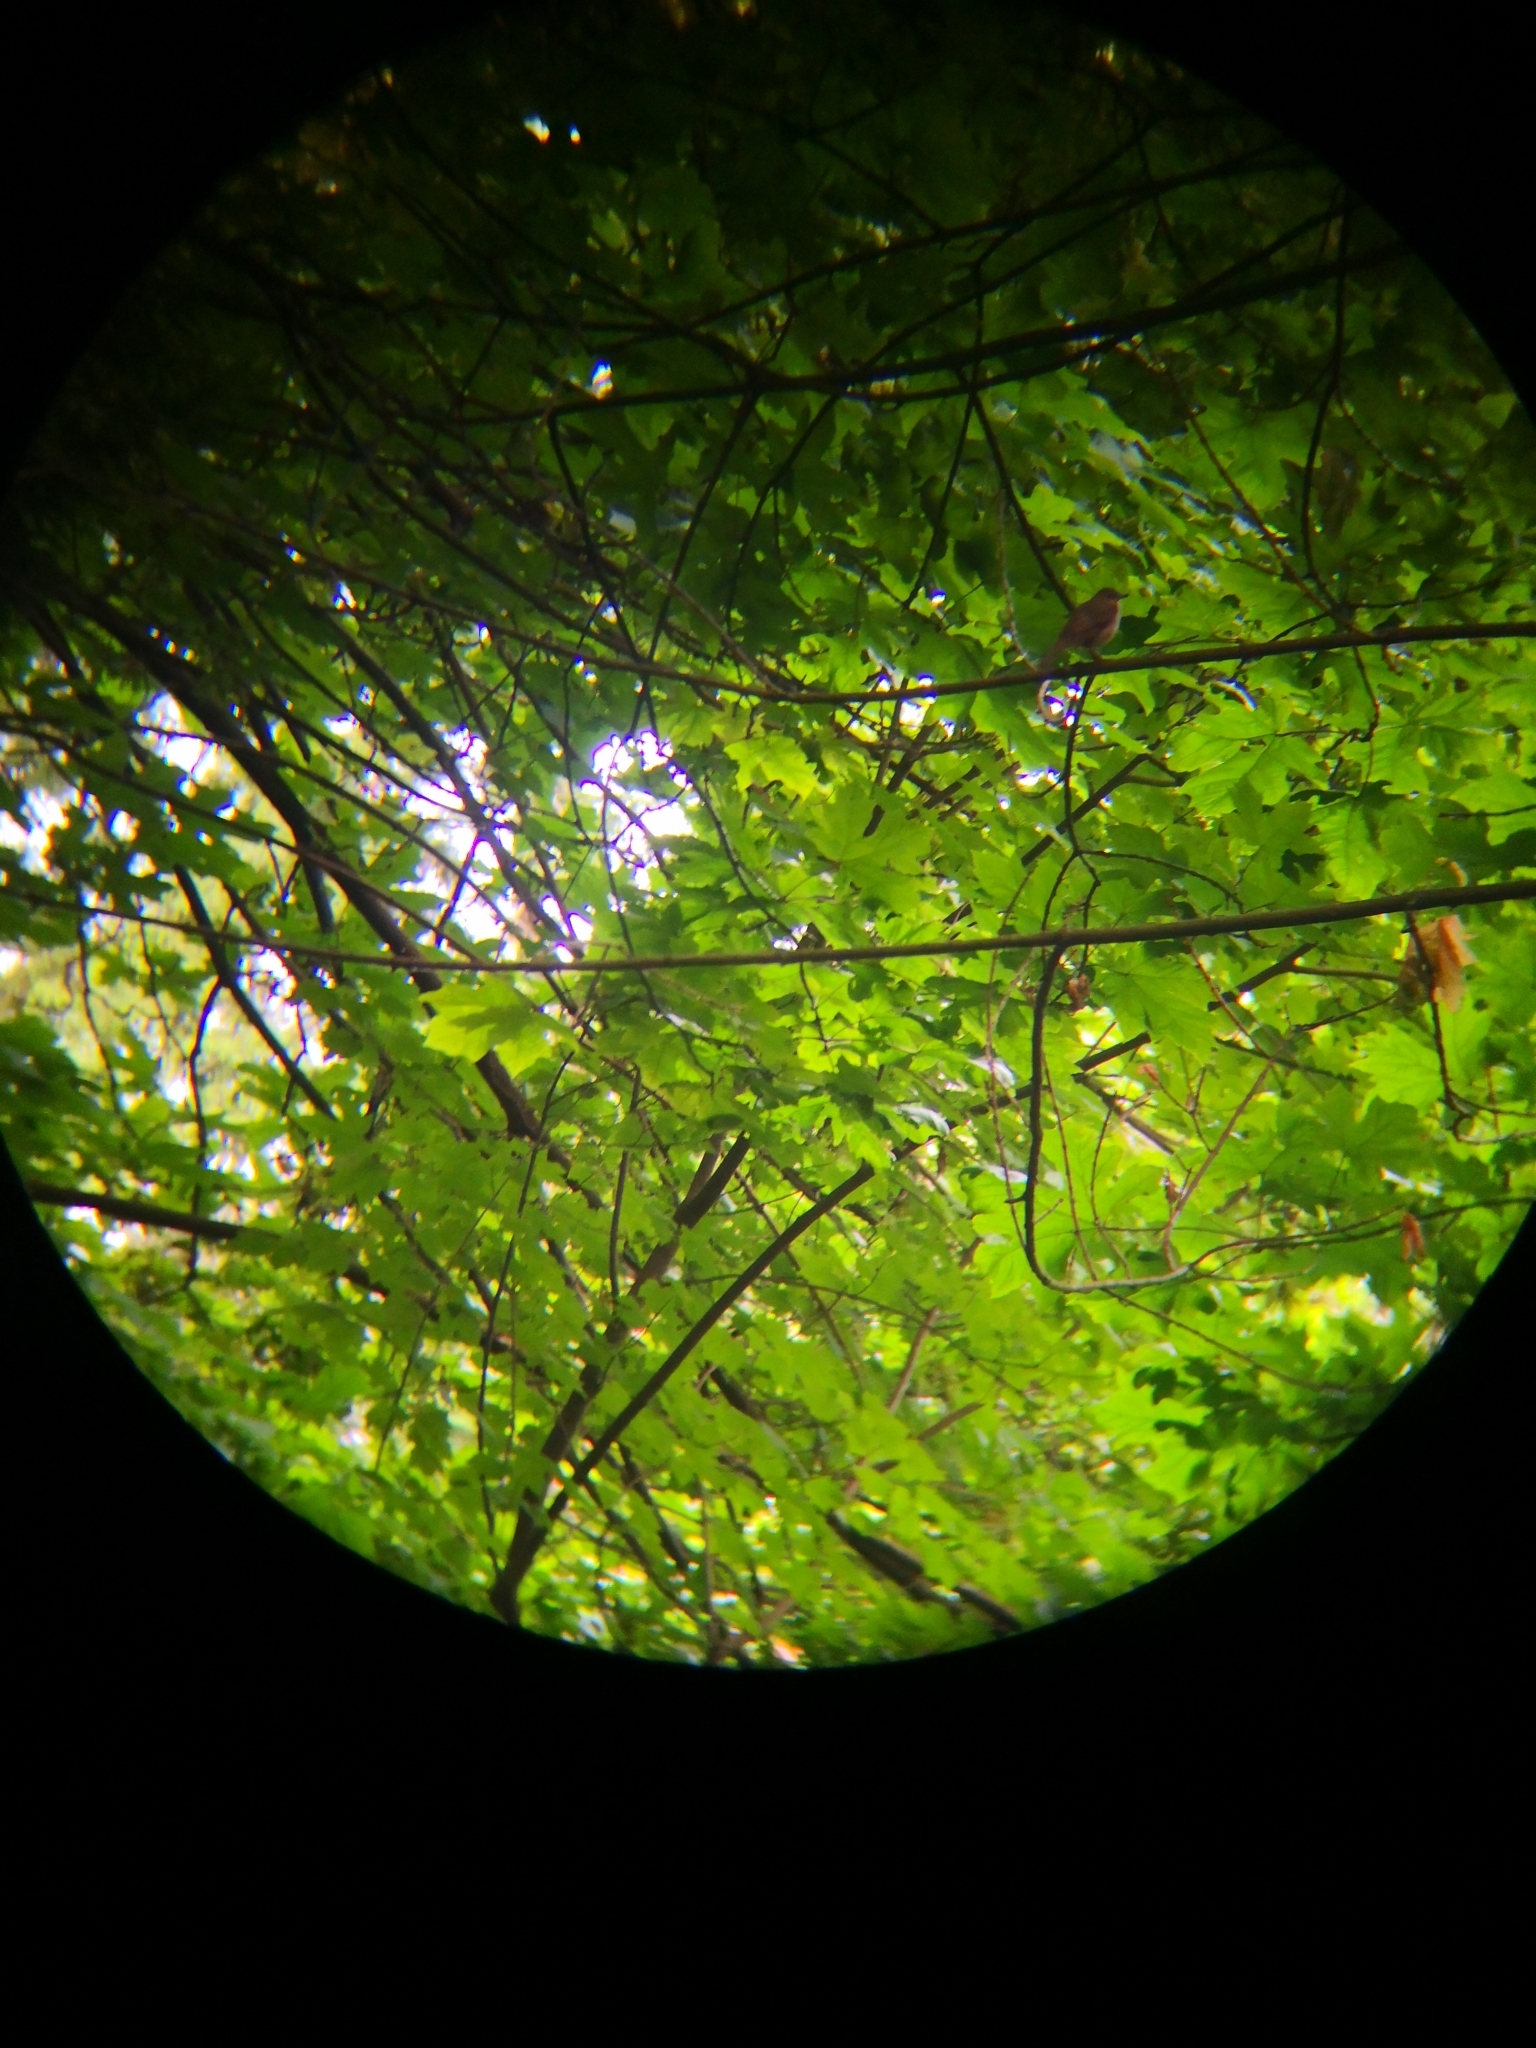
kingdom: Animalia
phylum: Chordata
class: Aves
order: Passeriformes
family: Turdidae
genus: Catharus
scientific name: Catharus ustulatus
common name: Swainson's thrush
